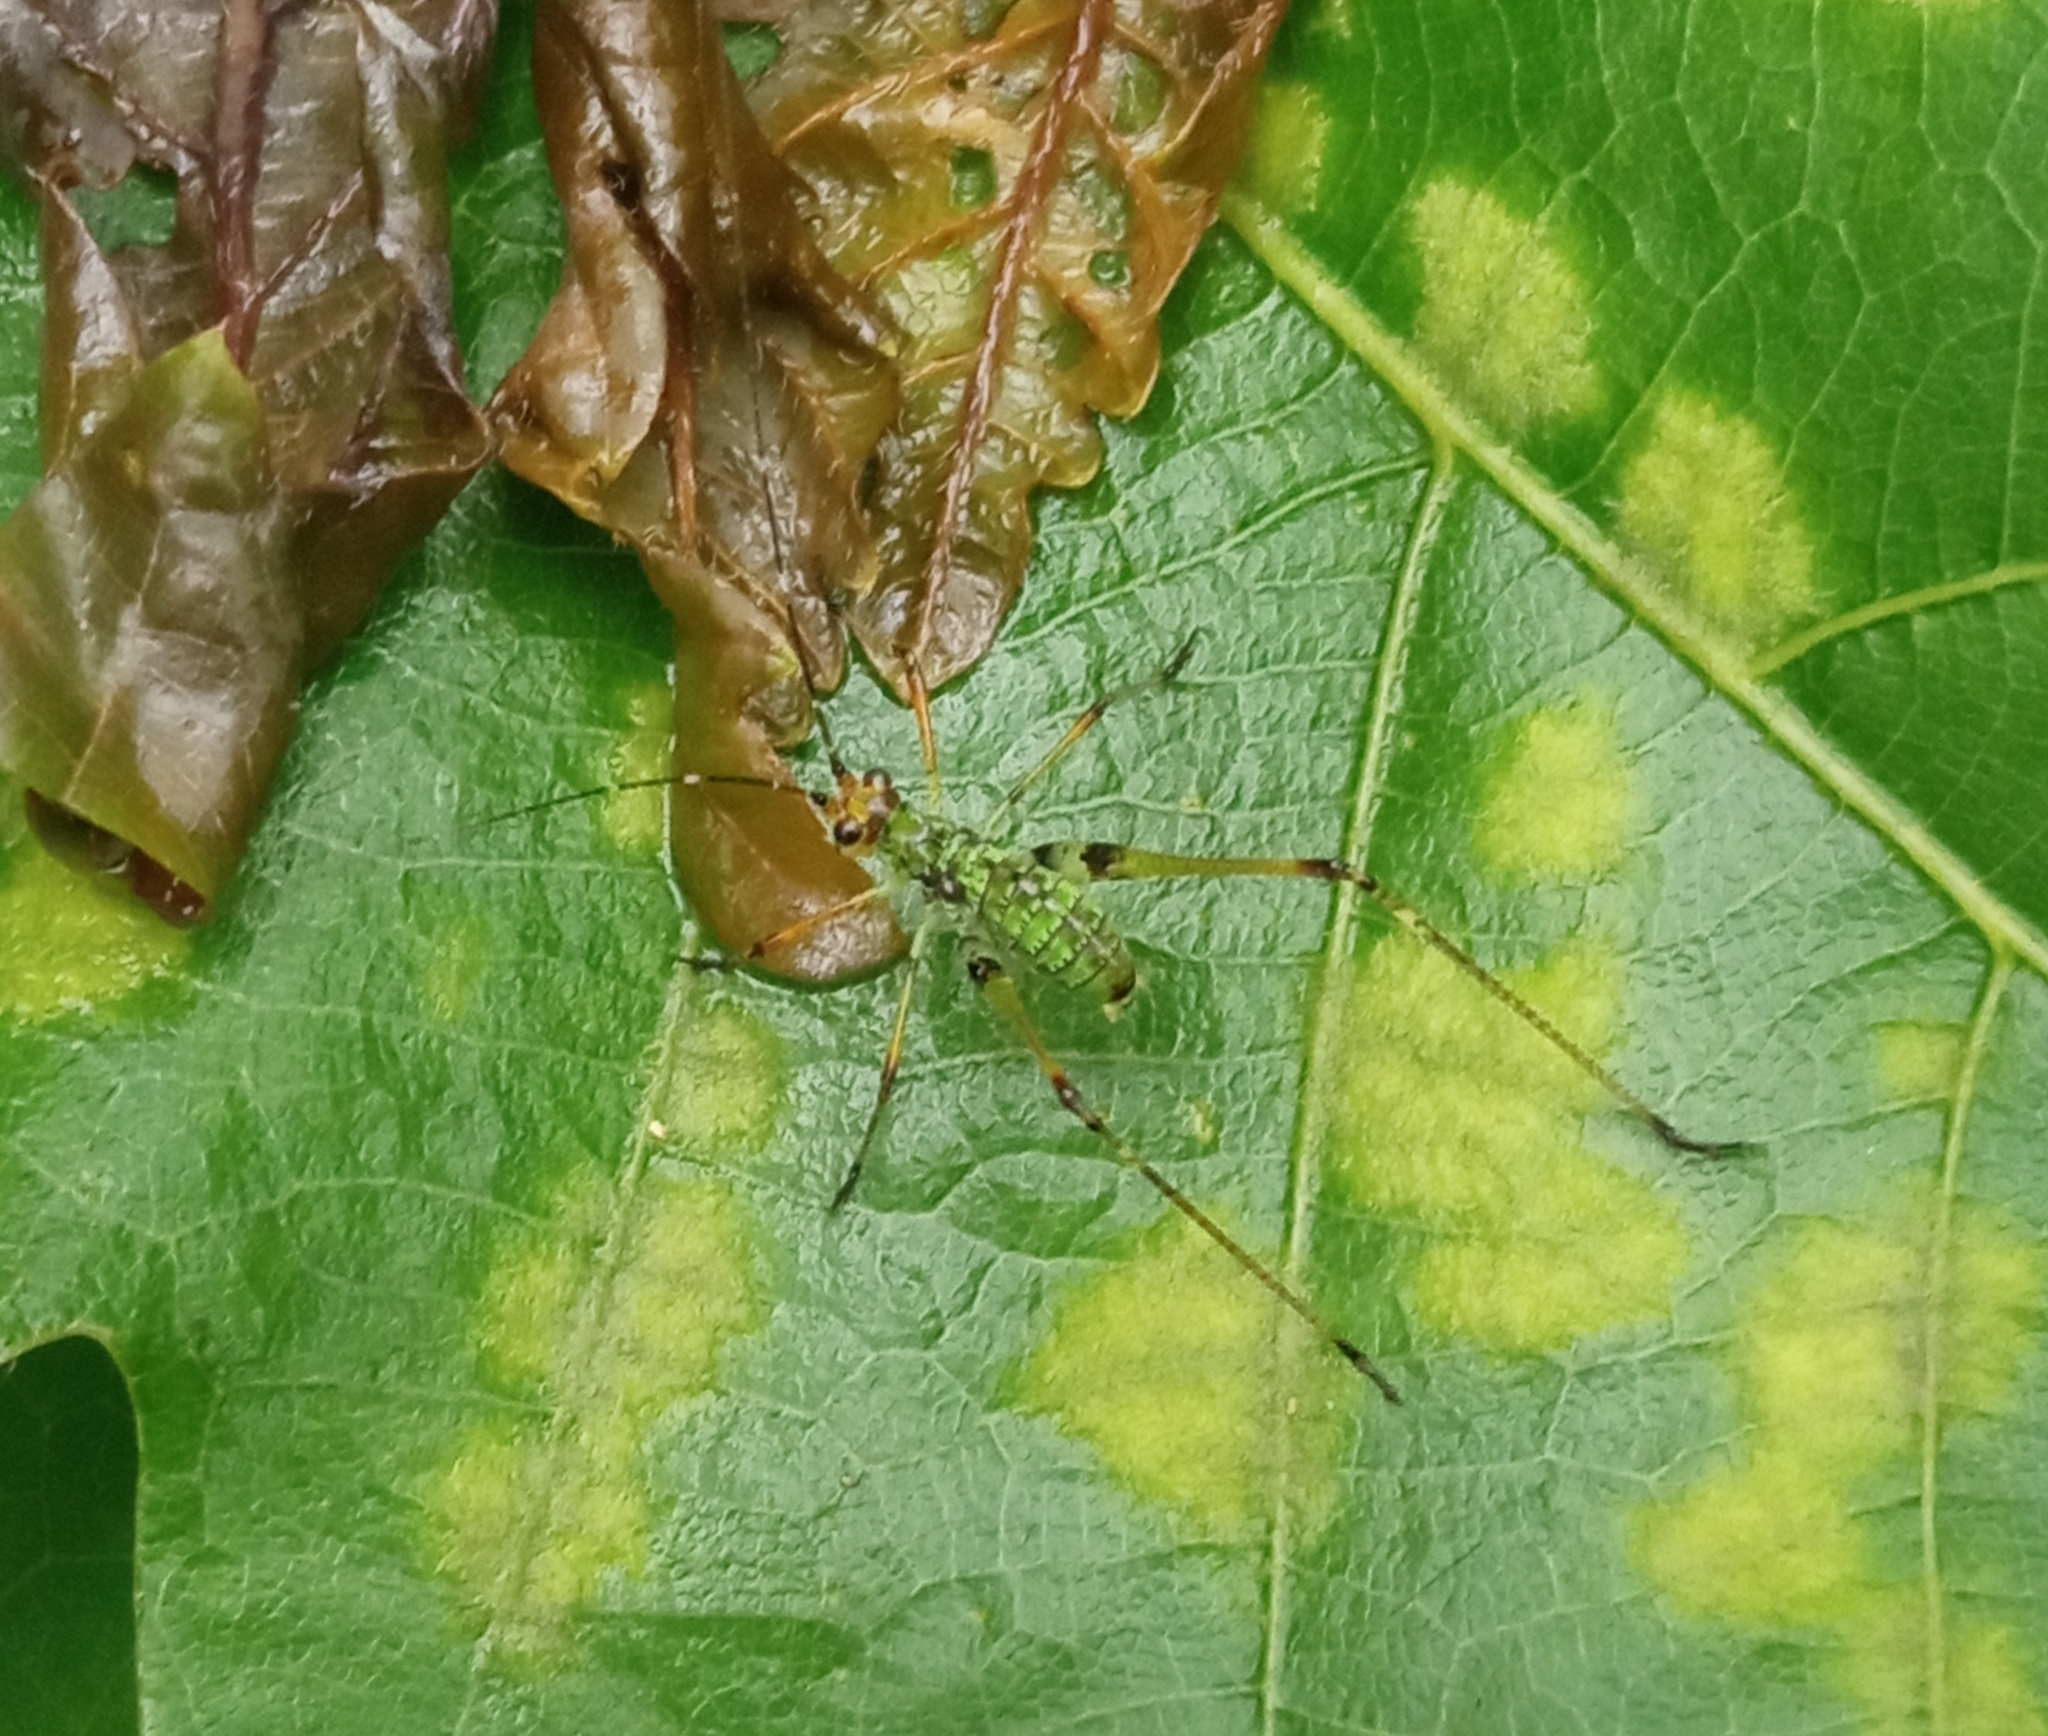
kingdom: Animalia
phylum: Arthropoda
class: Insecta
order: Orthoptera
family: Tettigoniidae
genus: Phaneroptera
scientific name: Phaneroptera nigroantennata
